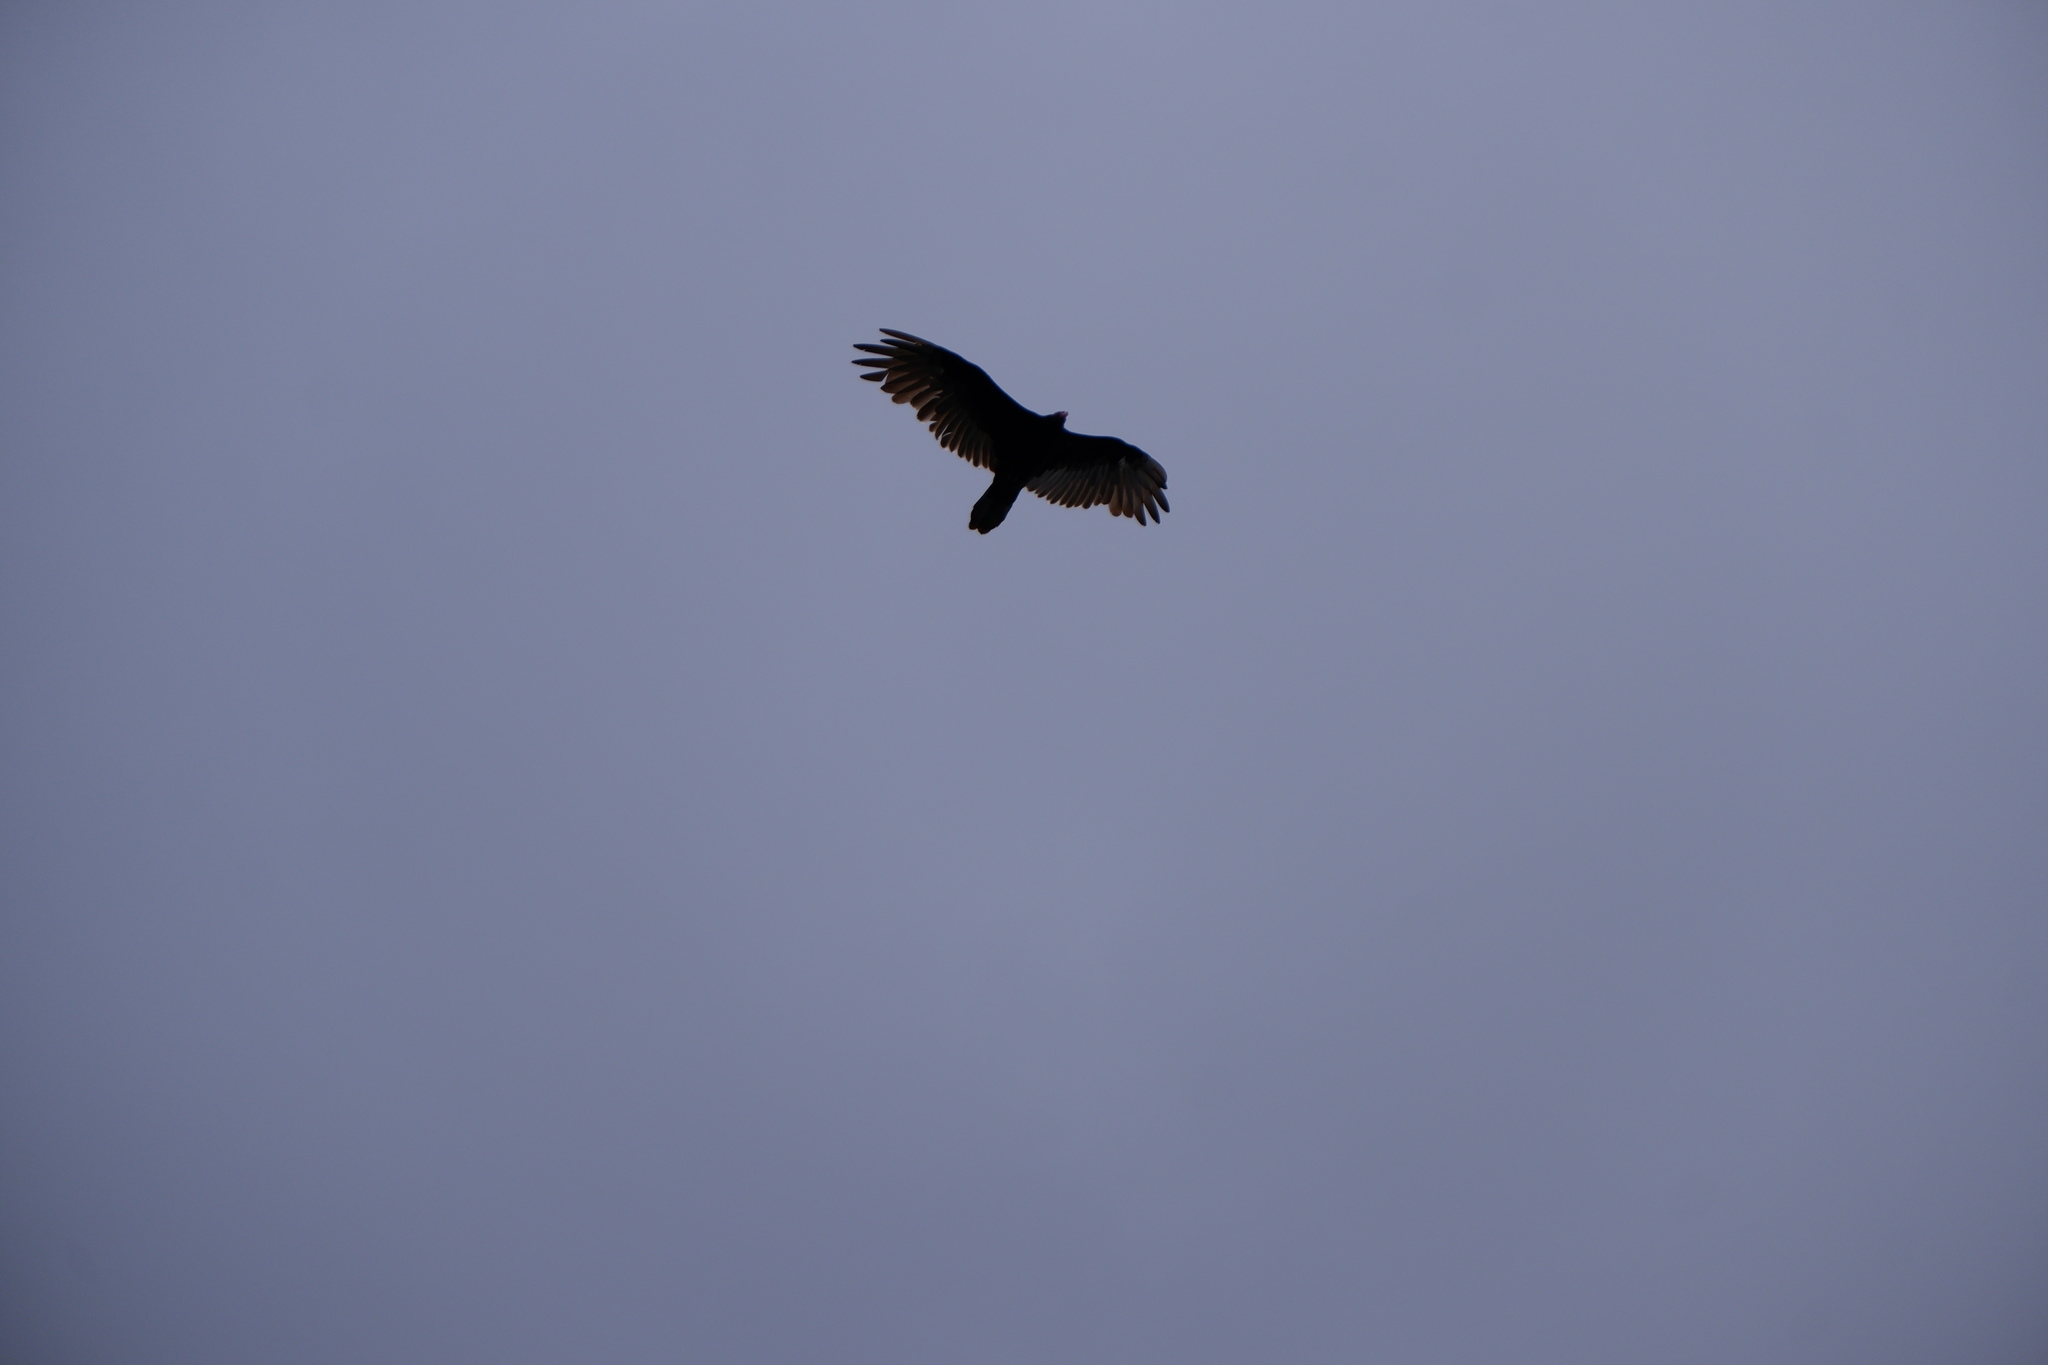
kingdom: Animalia
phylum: Chordata
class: Aves
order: Accipitriformes
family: Cathartidae
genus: Cathartes
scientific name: Cathartes aura
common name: Turkey vulture
